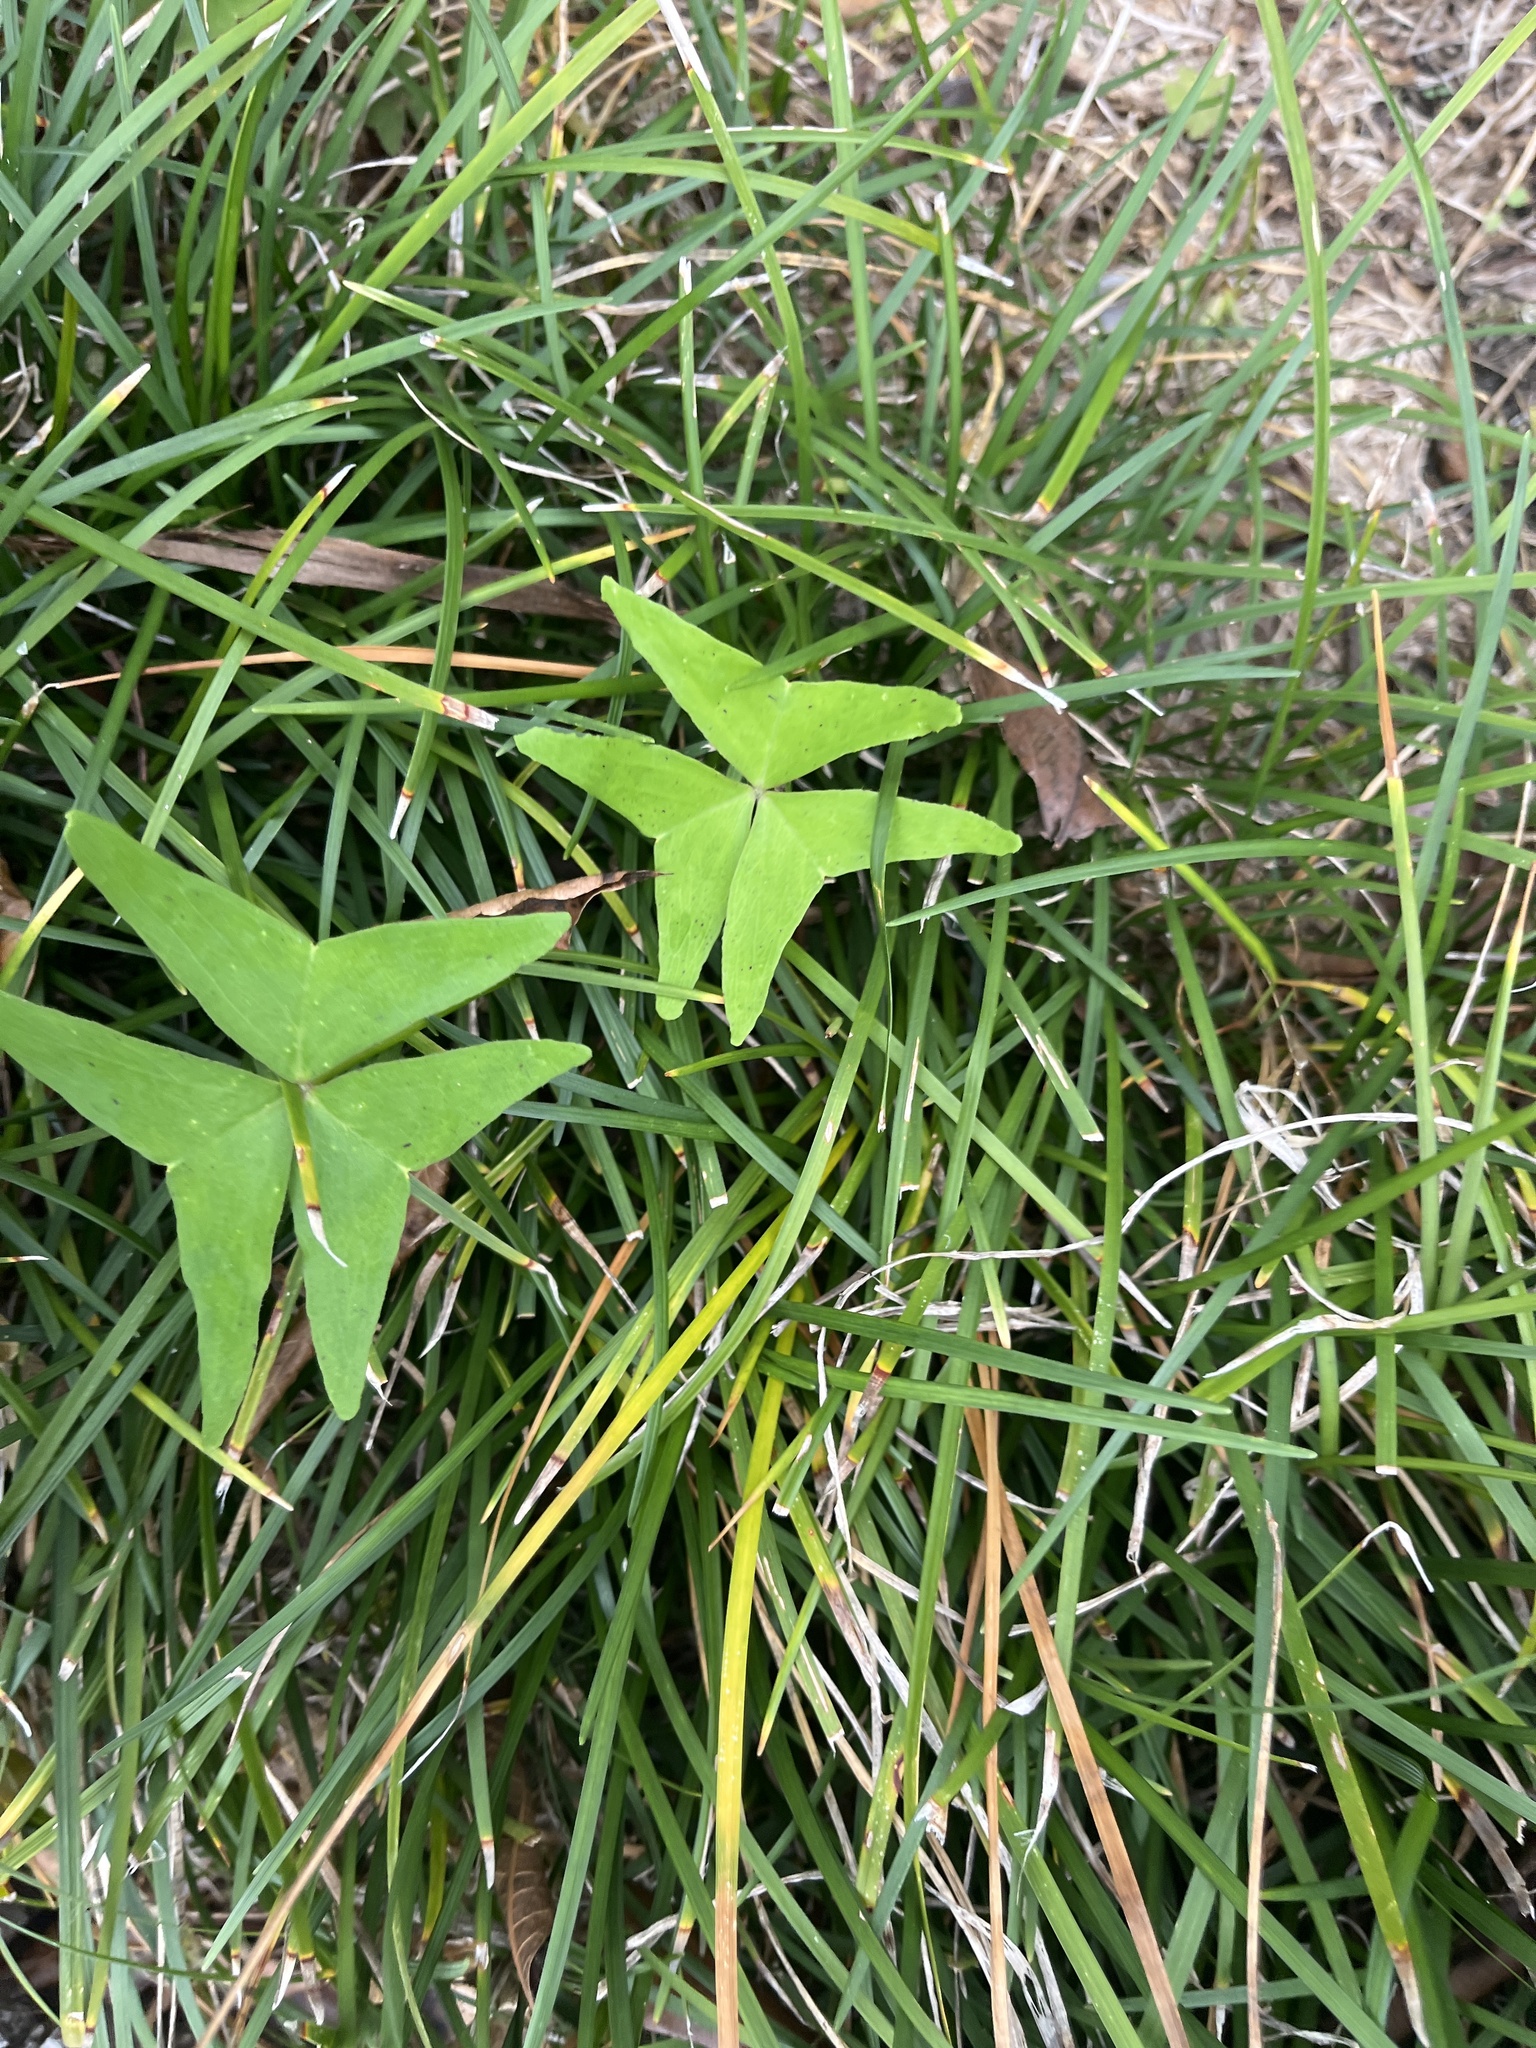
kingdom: Plantae
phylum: Tracheophyta
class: Magnoliopsida
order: Oxalidales
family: Oxalidaceae
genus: Oxalis
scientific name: Oxalis intermedia
